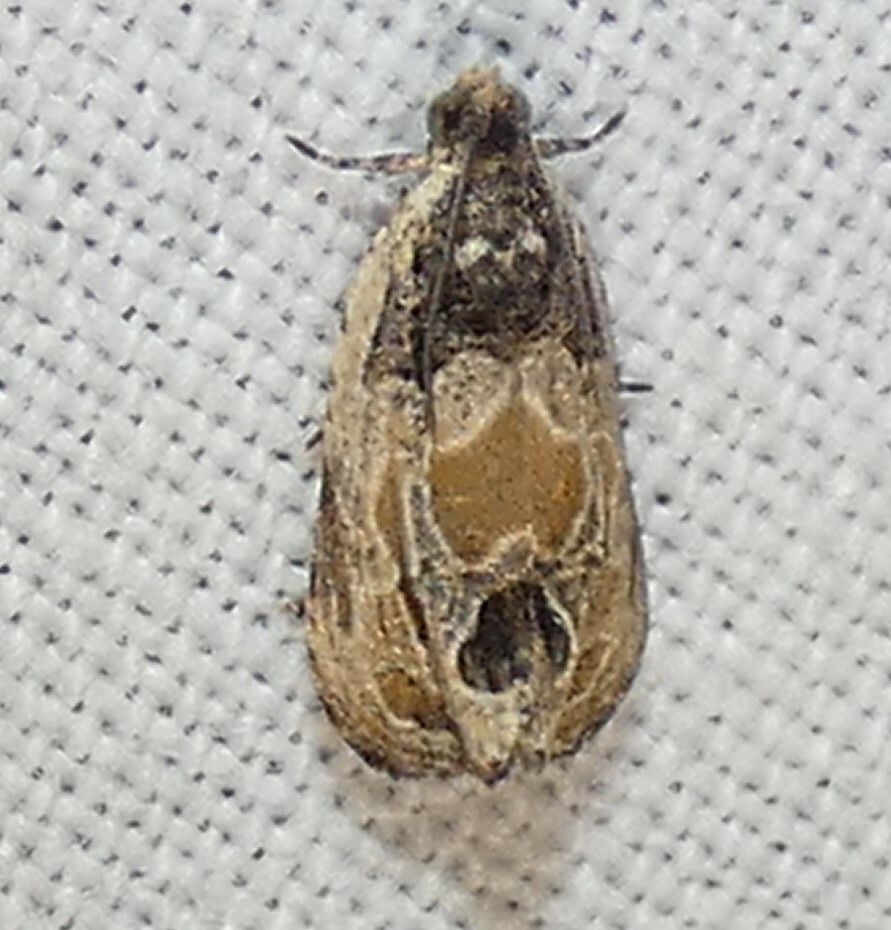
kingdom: Animalia
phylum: Arthropoda
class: Insecta
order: Lepidoptera
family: Tortricidae
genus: Olethreutes
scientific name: Olethreutes griseoalbana
